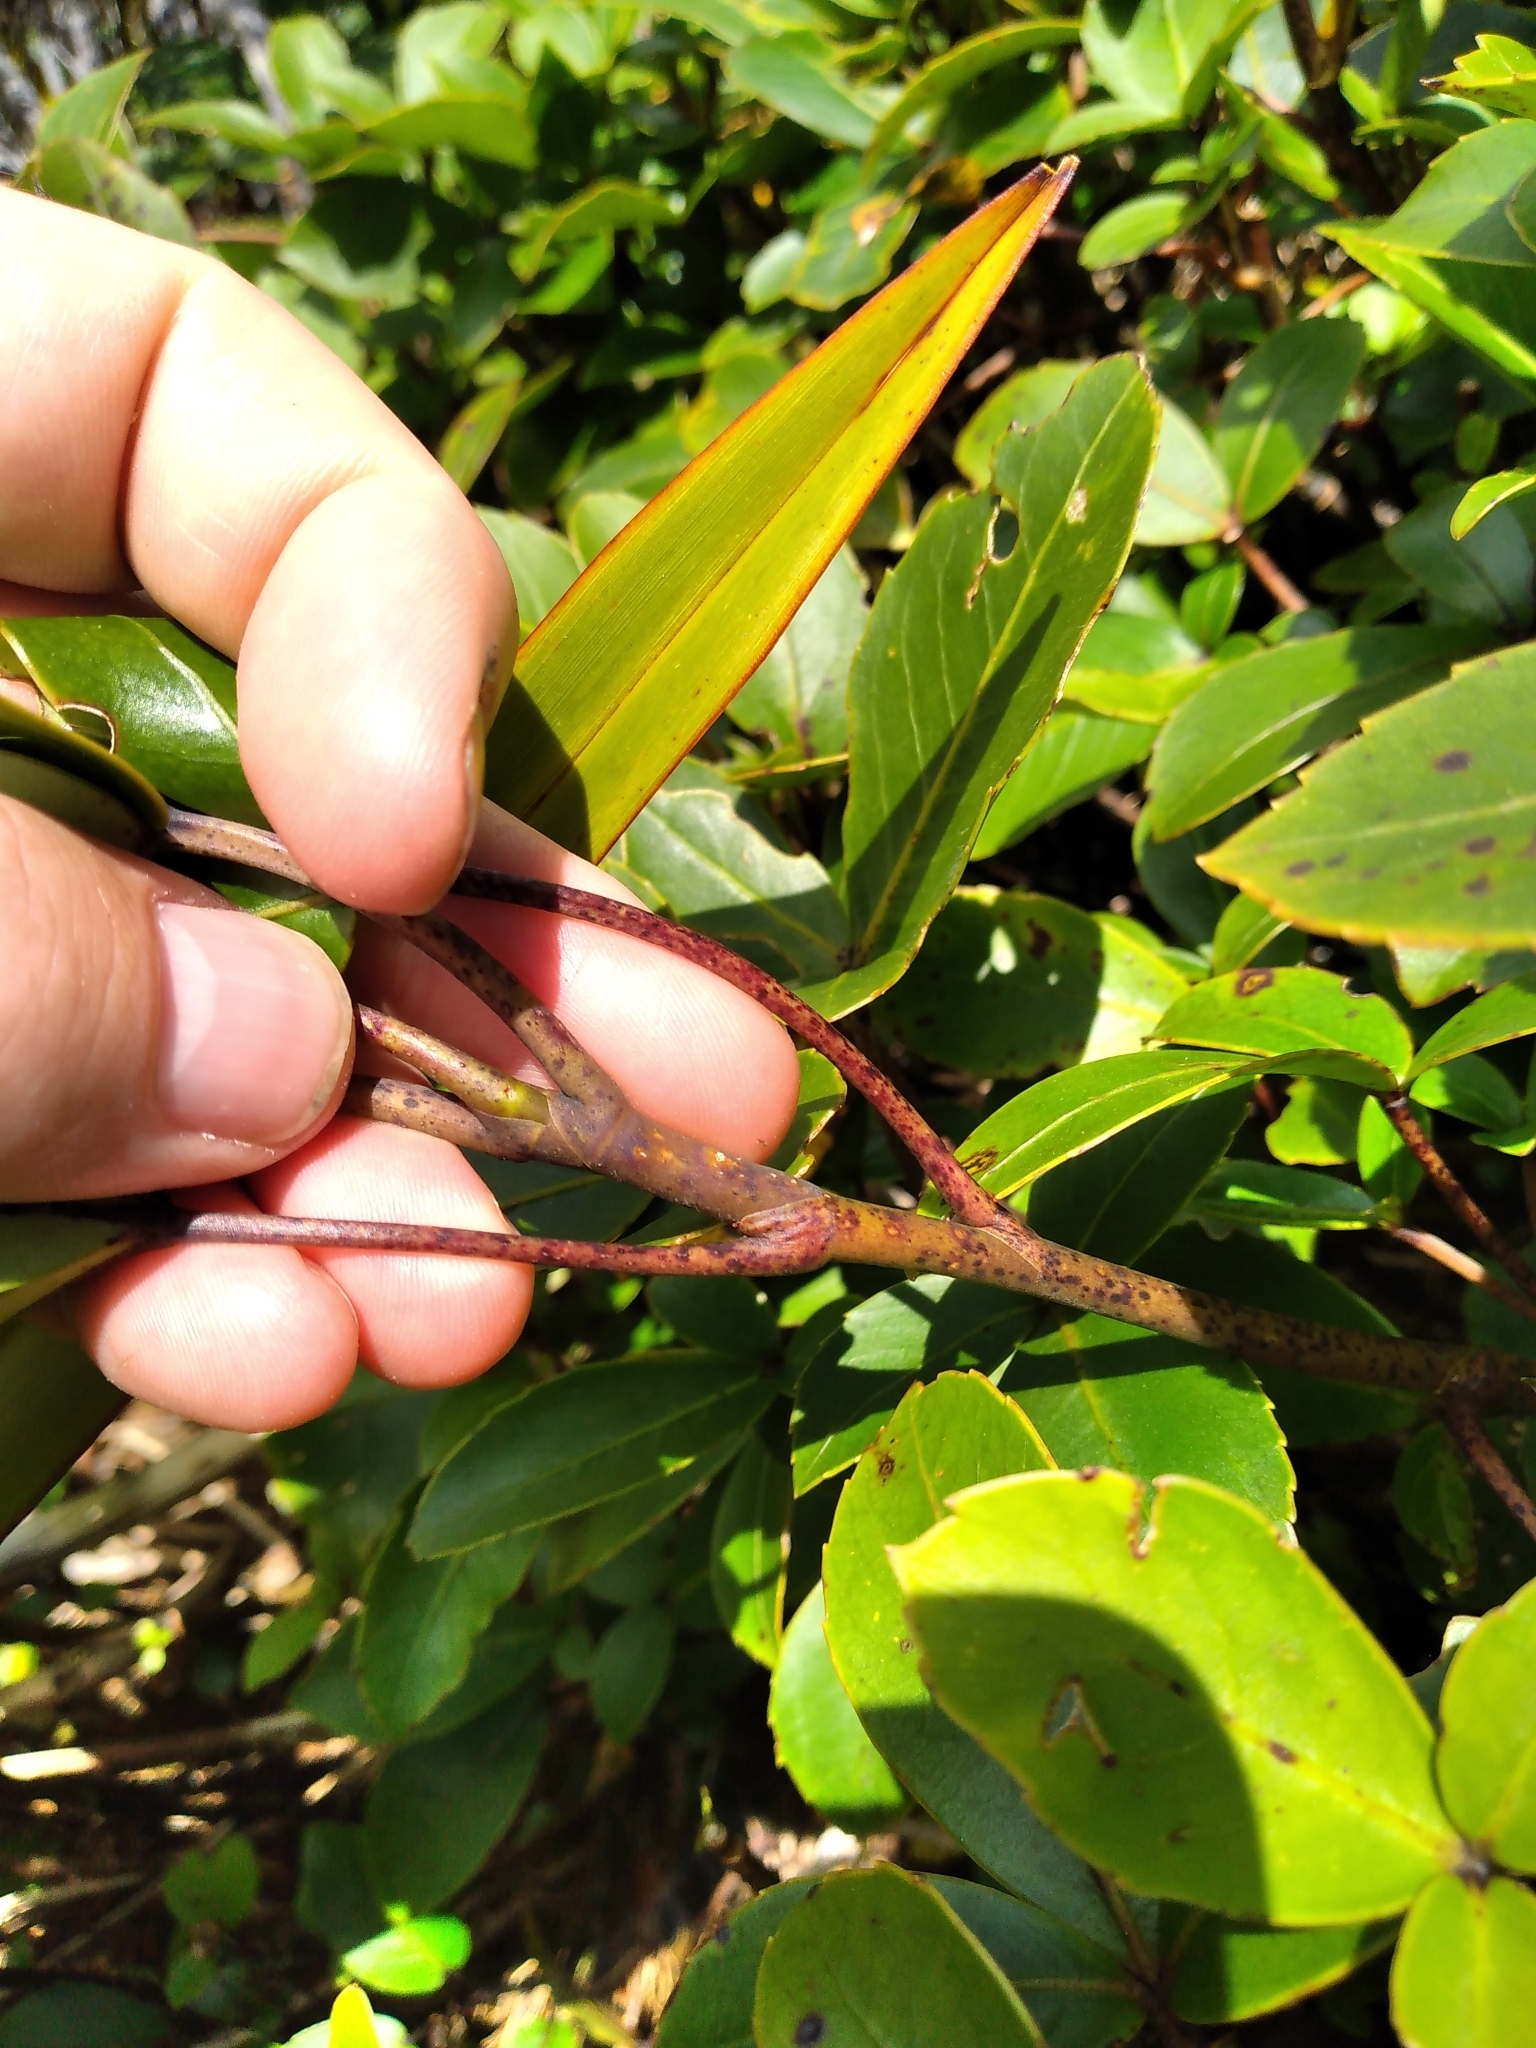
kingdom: Plantae
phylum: Tracheophyta
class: Magnoliopsida
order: Apiales
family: Araliaceae
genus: Neopanax
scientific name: Neopanax colensoi
